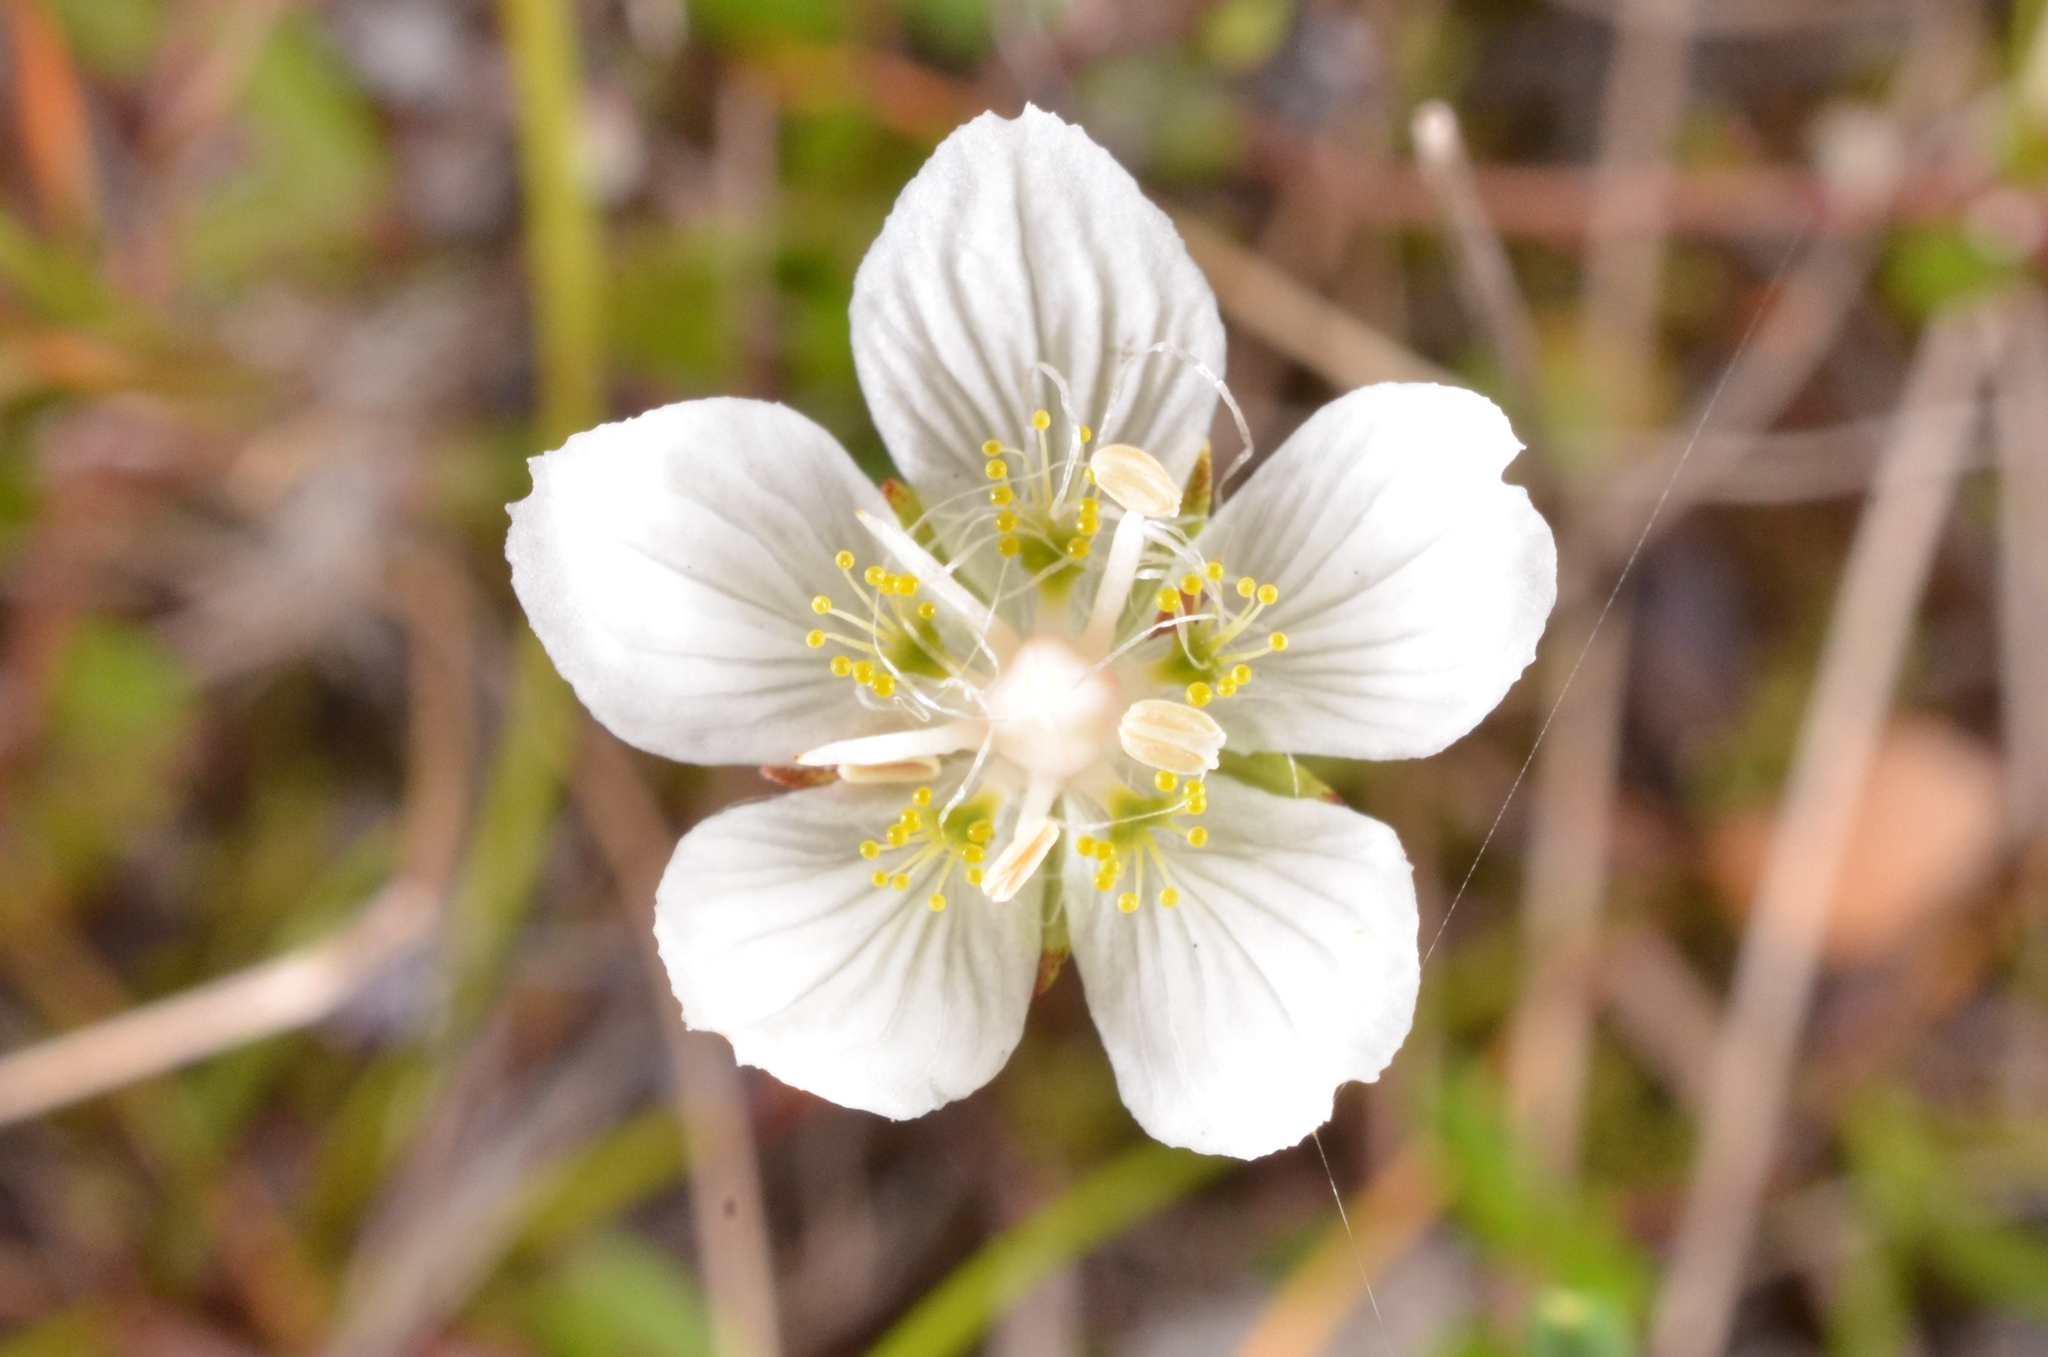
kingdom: Plantae
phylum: Tracheophyta
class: Magnoliopsida
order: Celastrales
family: Parnassiaceae
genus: Parnassia
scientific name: Parnassia palustris
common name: Grass-of-parnassus
